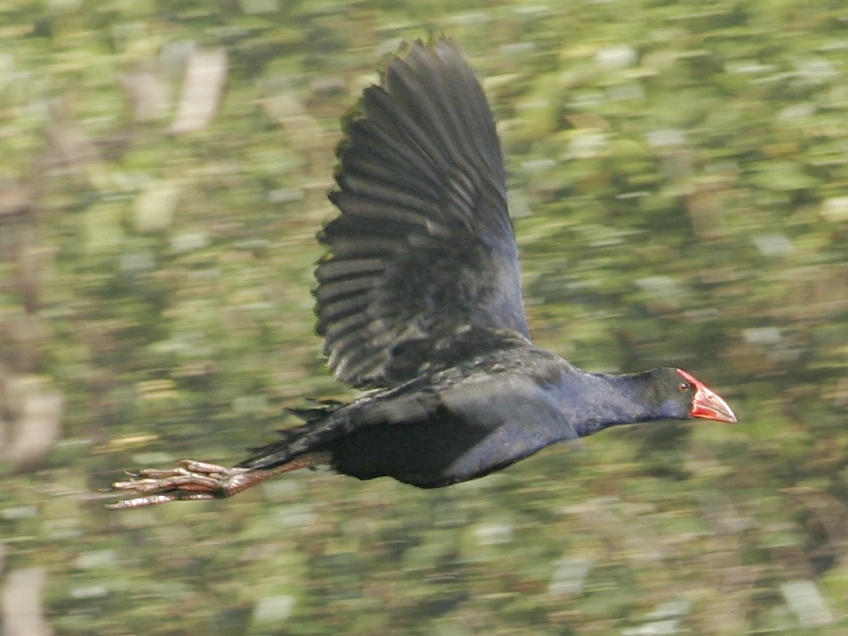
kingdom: Animalia
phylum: Chordata
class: Aves
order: Gruiformes
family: Rallidae
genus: Porphyrio
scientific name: Porphyrio melanotus
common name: Australasian swamphen
